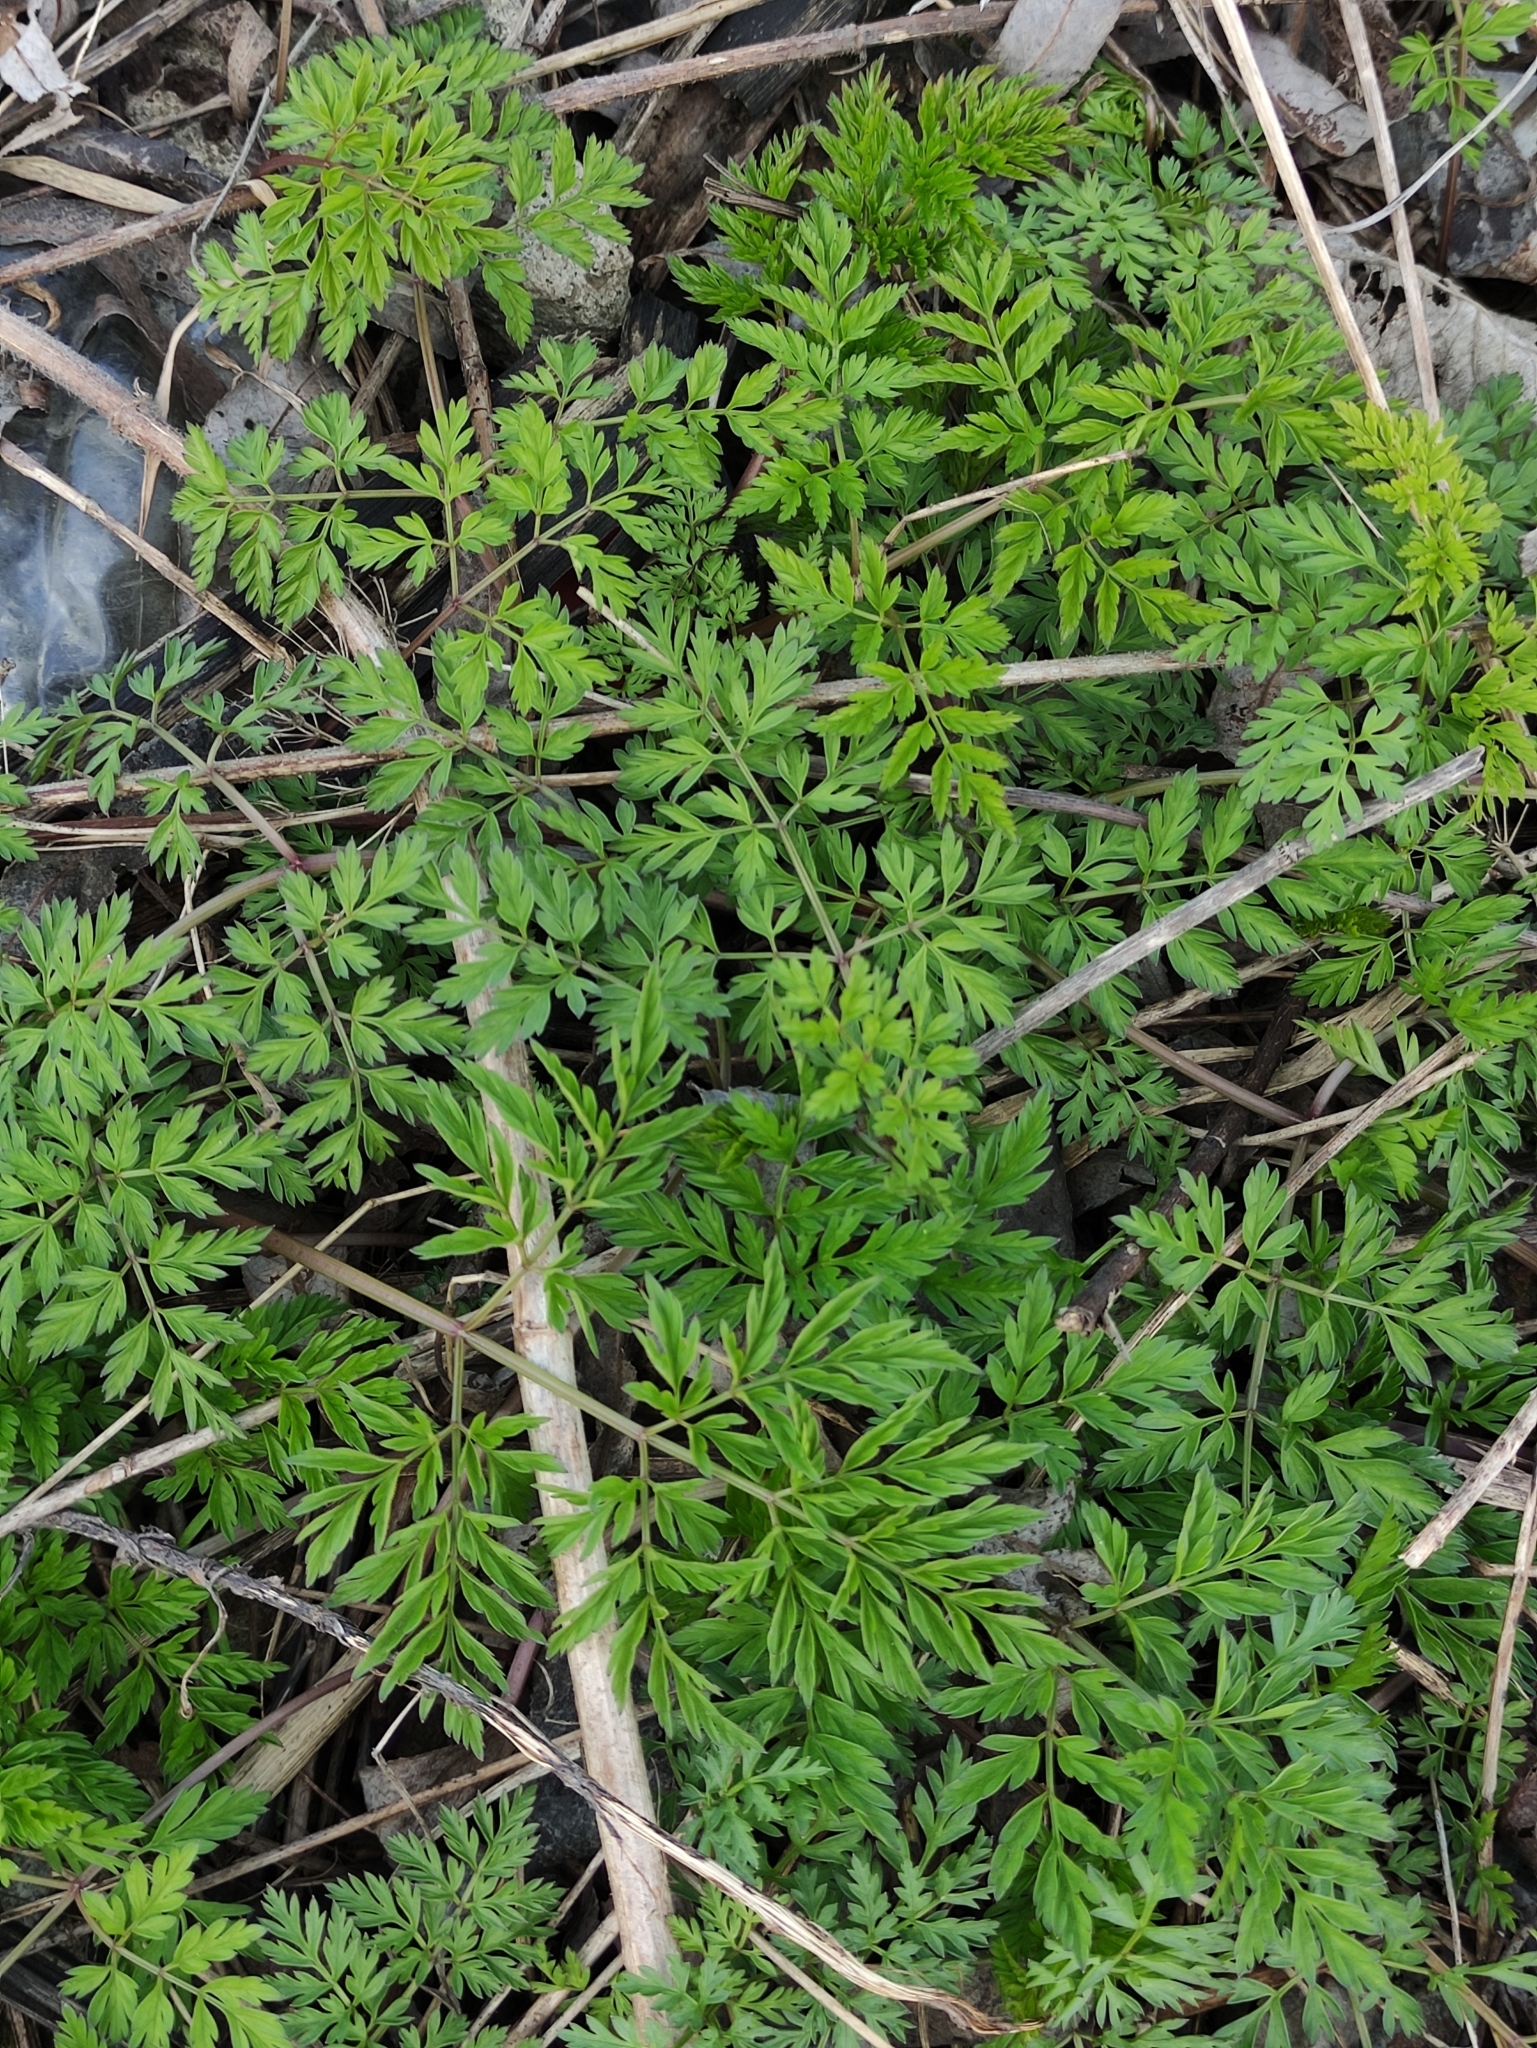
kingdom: Plantae
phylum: Tracheophyta
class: Magnoliopsida
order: Apiales
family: Apiaceae
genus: Anthriscus
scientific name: Anthriscus sylvestris
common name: Cow parsley
